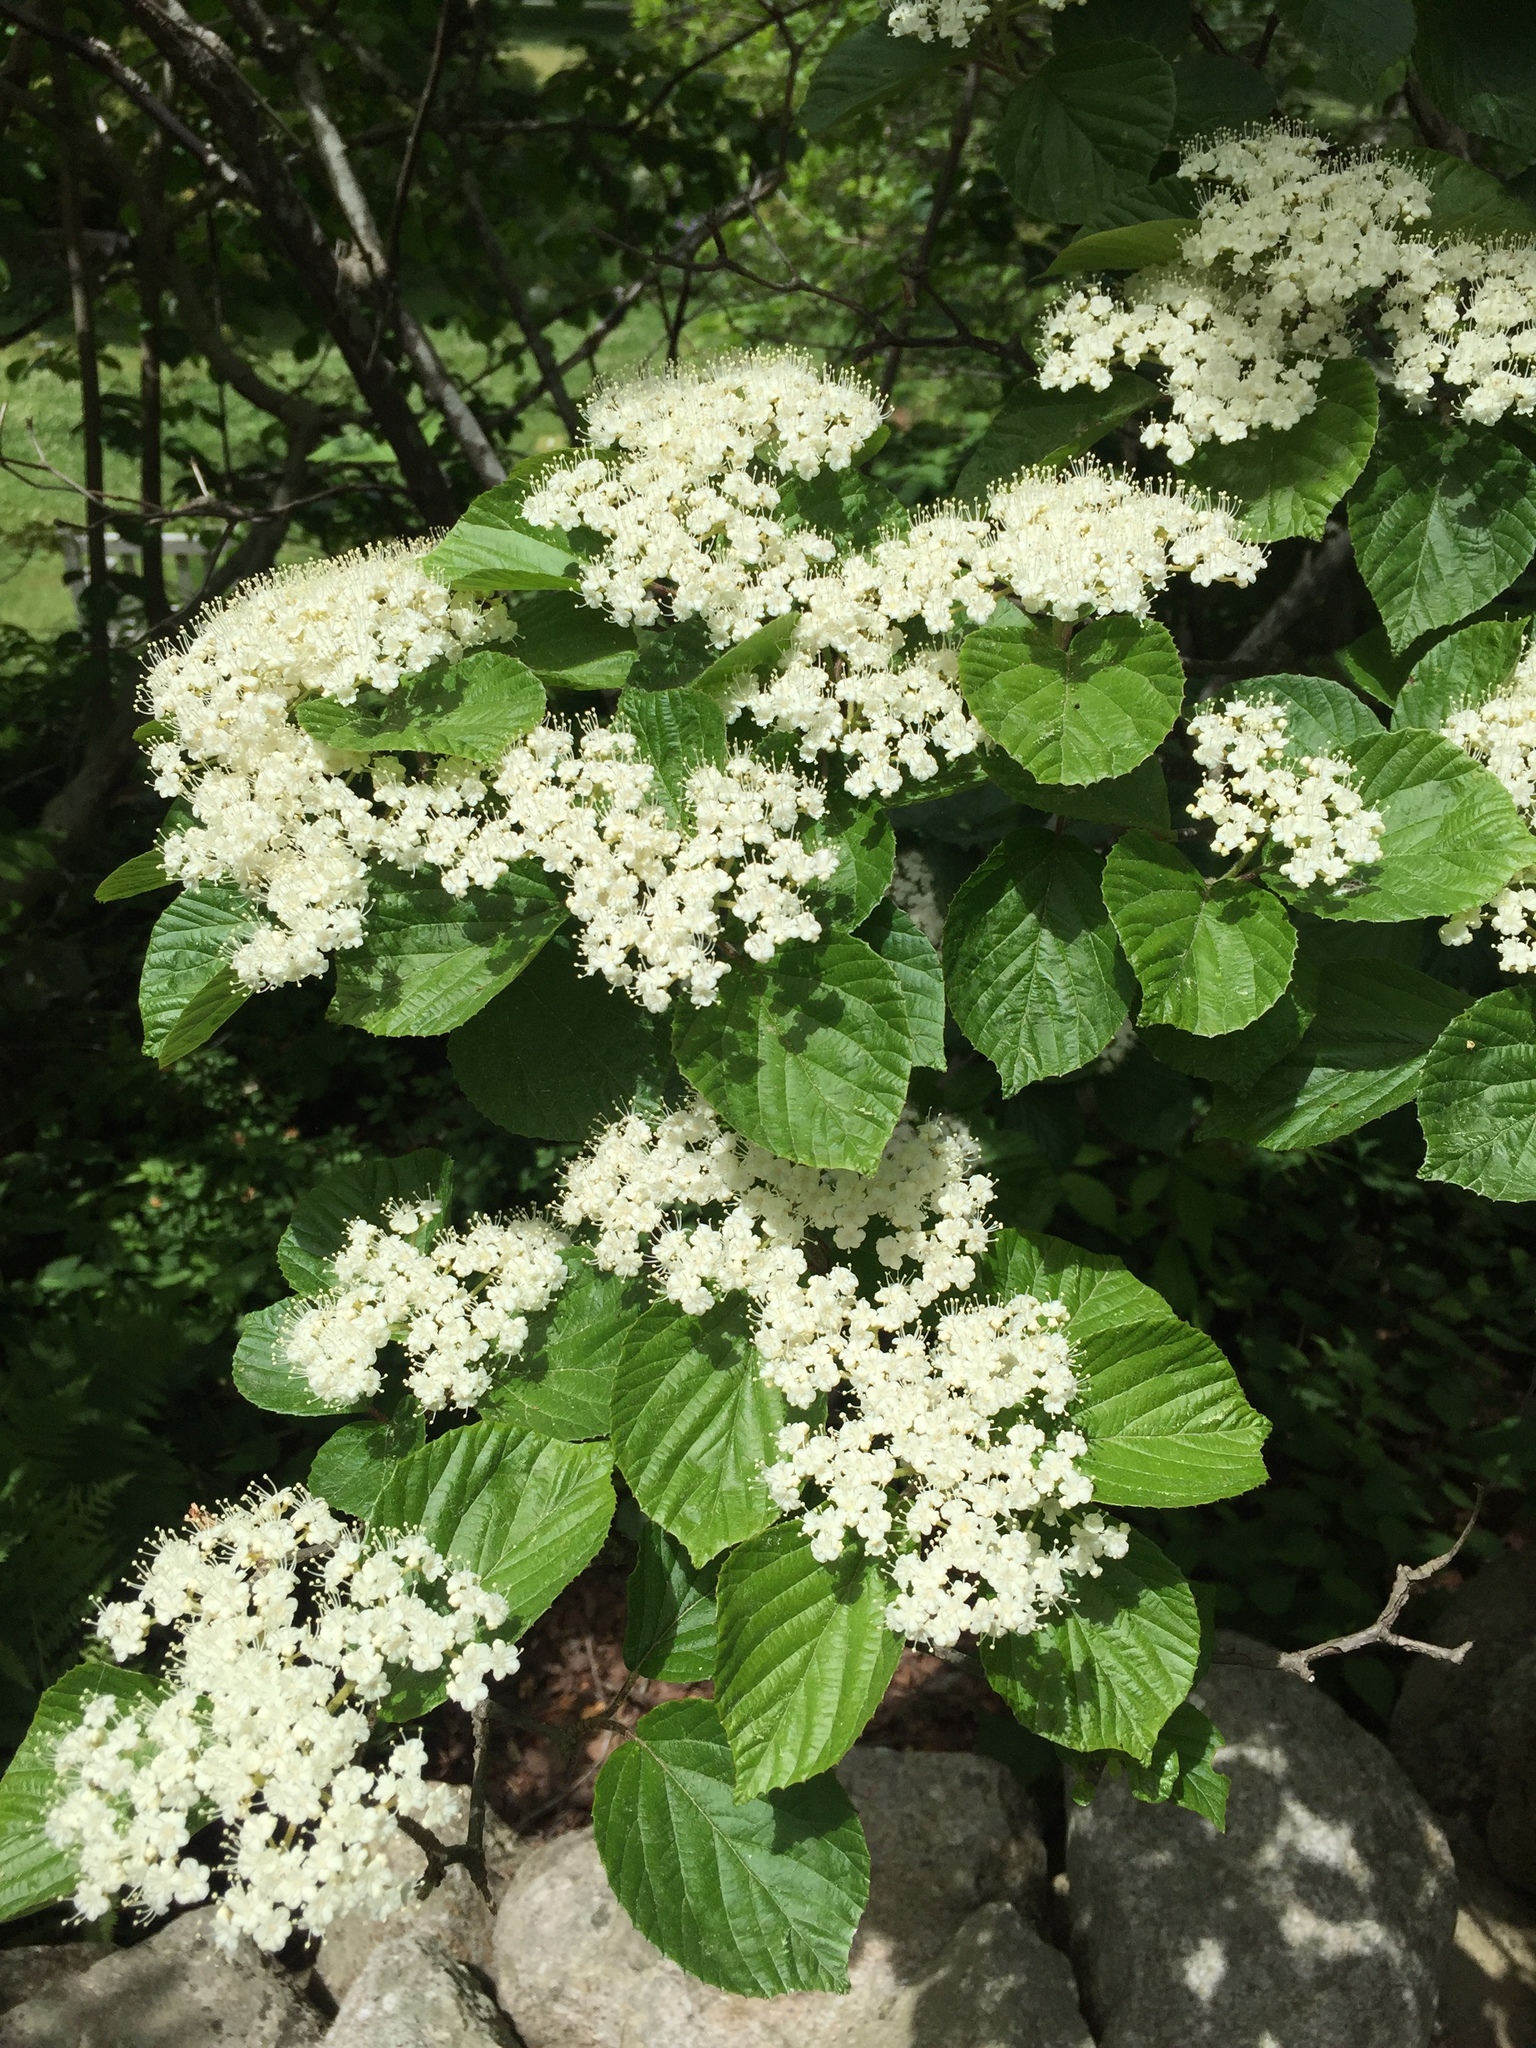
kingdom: Plantae
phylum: Tracheophyta
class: Magnoliopsida
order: Dipsacales
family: Viburnaceae
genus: Viburnum
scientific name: Viburnum dilatatum
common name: Linden arrowwood
